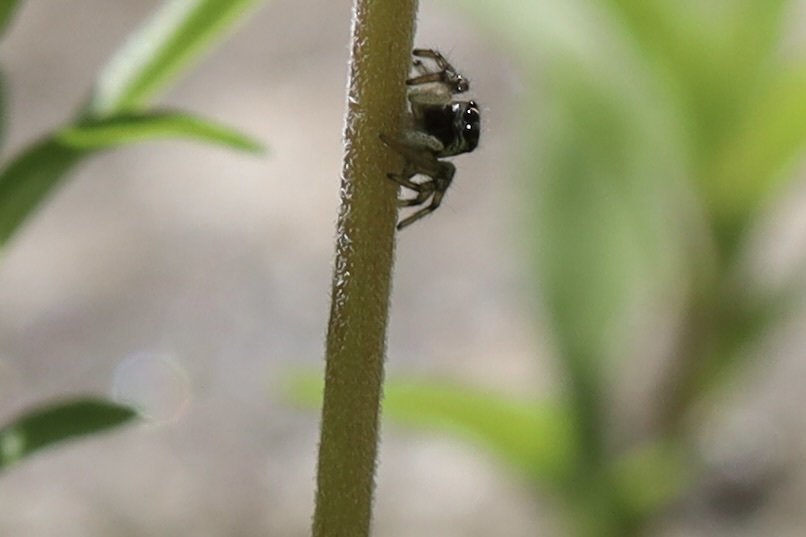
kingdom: Animalia
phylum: Arthropoda
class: Arachnida
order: Araneae
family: Salticidae
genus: Salticus
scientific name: Salticus scenicus
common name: Zebra jumper
